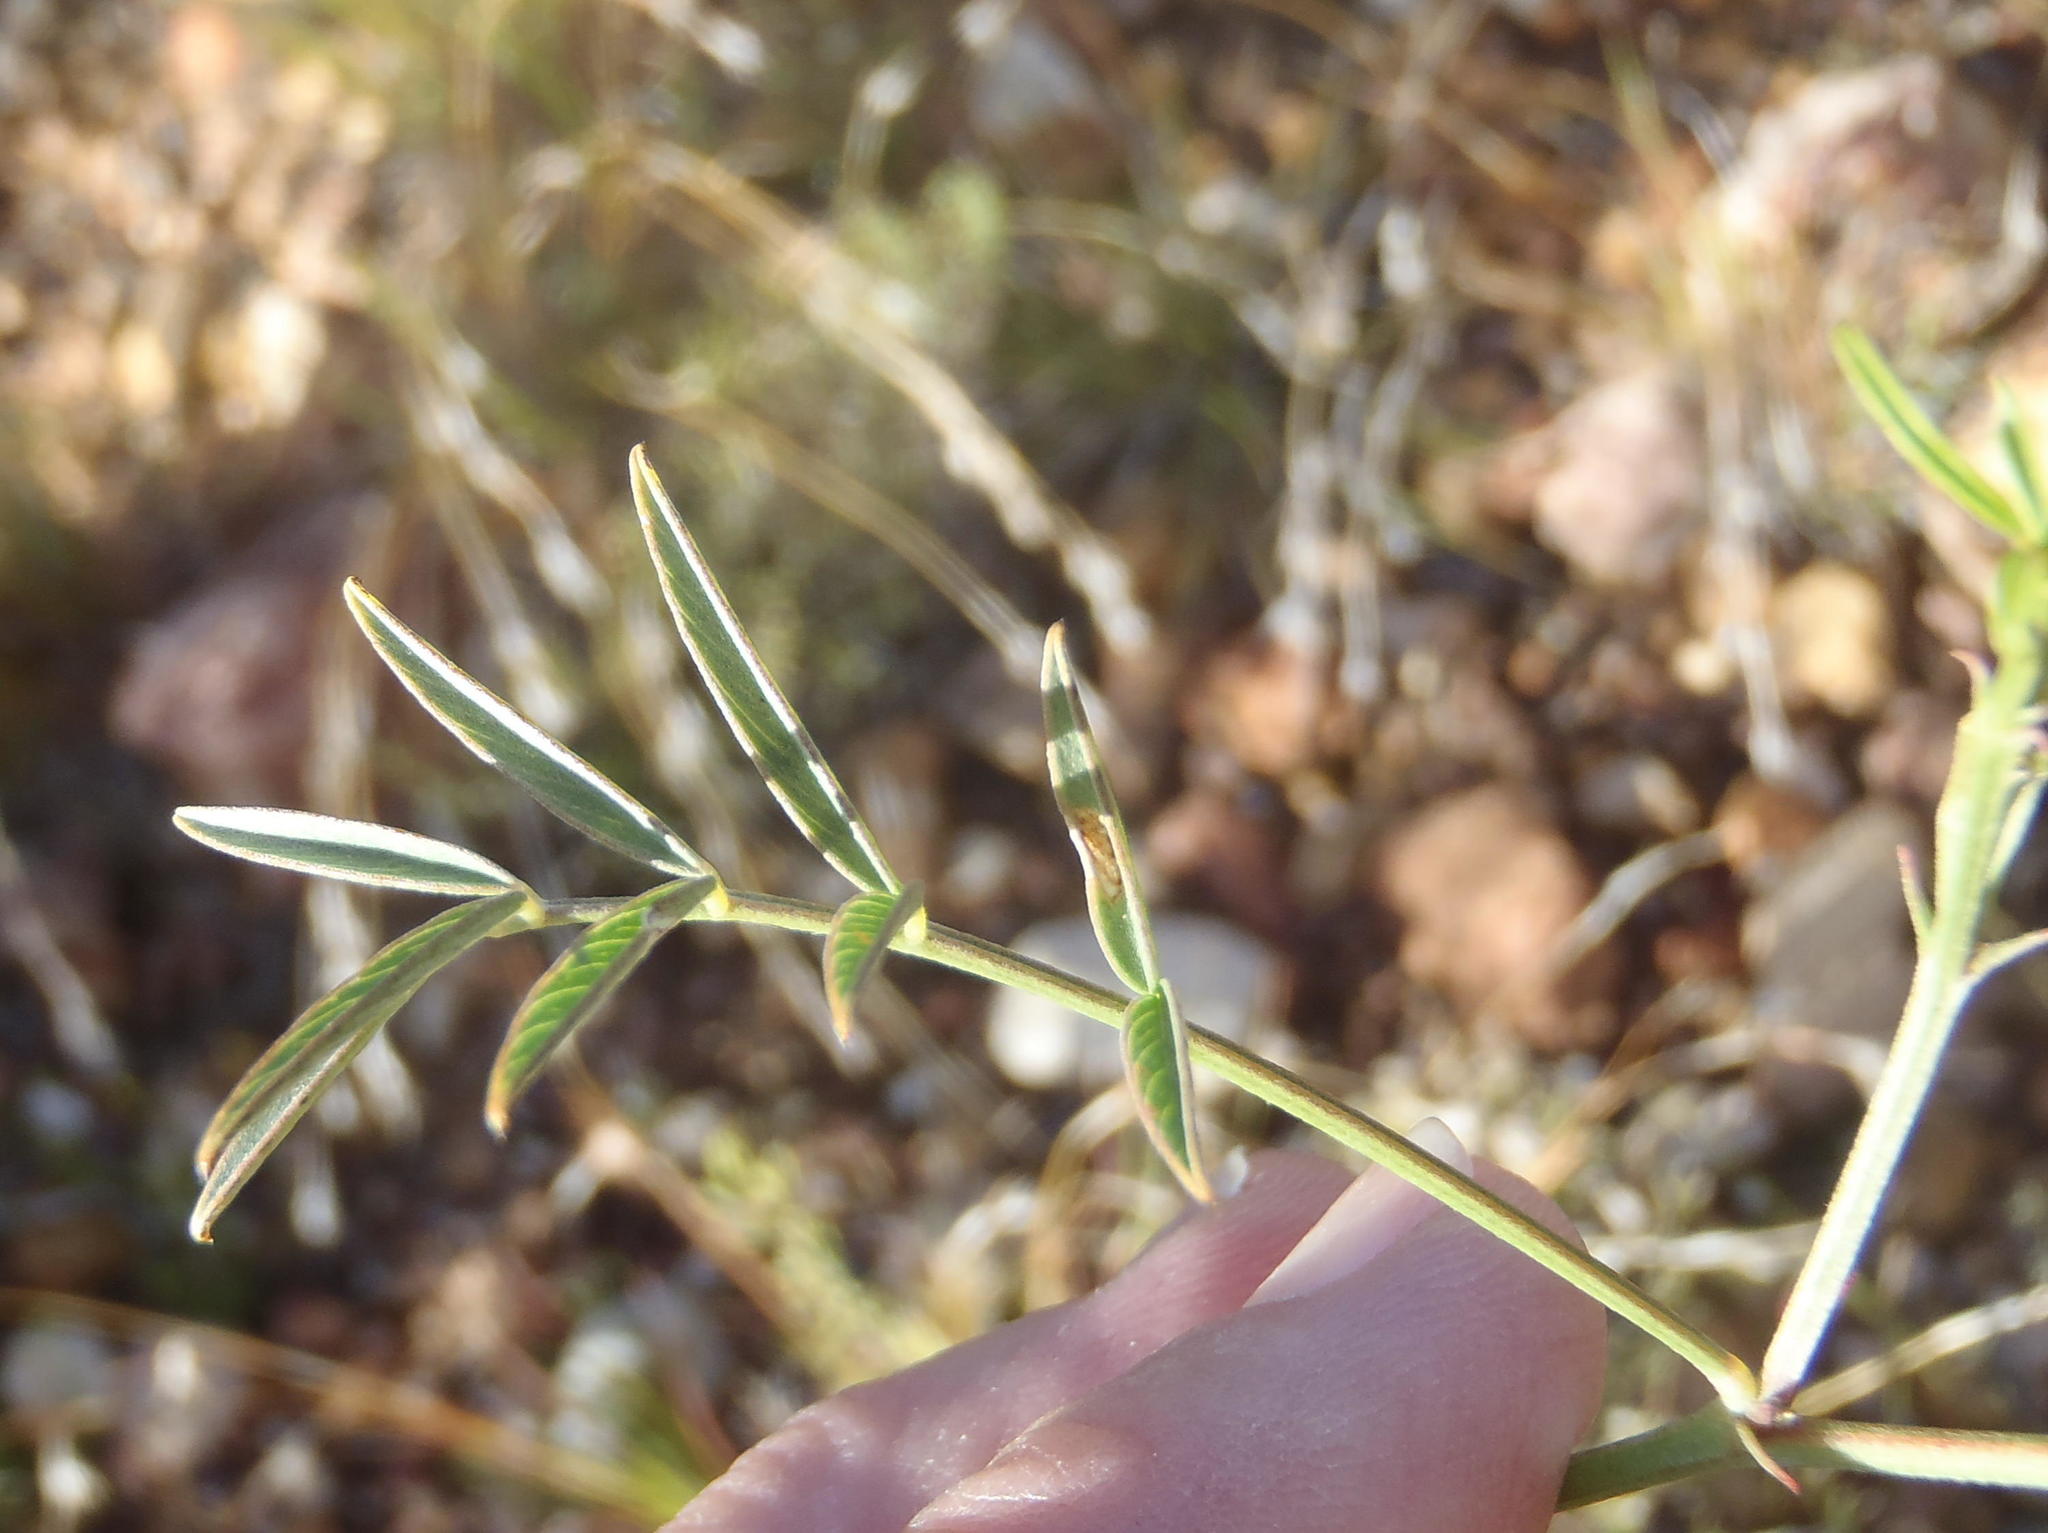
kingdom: Plantae
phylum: Tracheophyta
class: Magnoliopsida
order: Fabales
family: Fabaceae
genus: Tephrosia
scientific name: Tephrosia capensis
